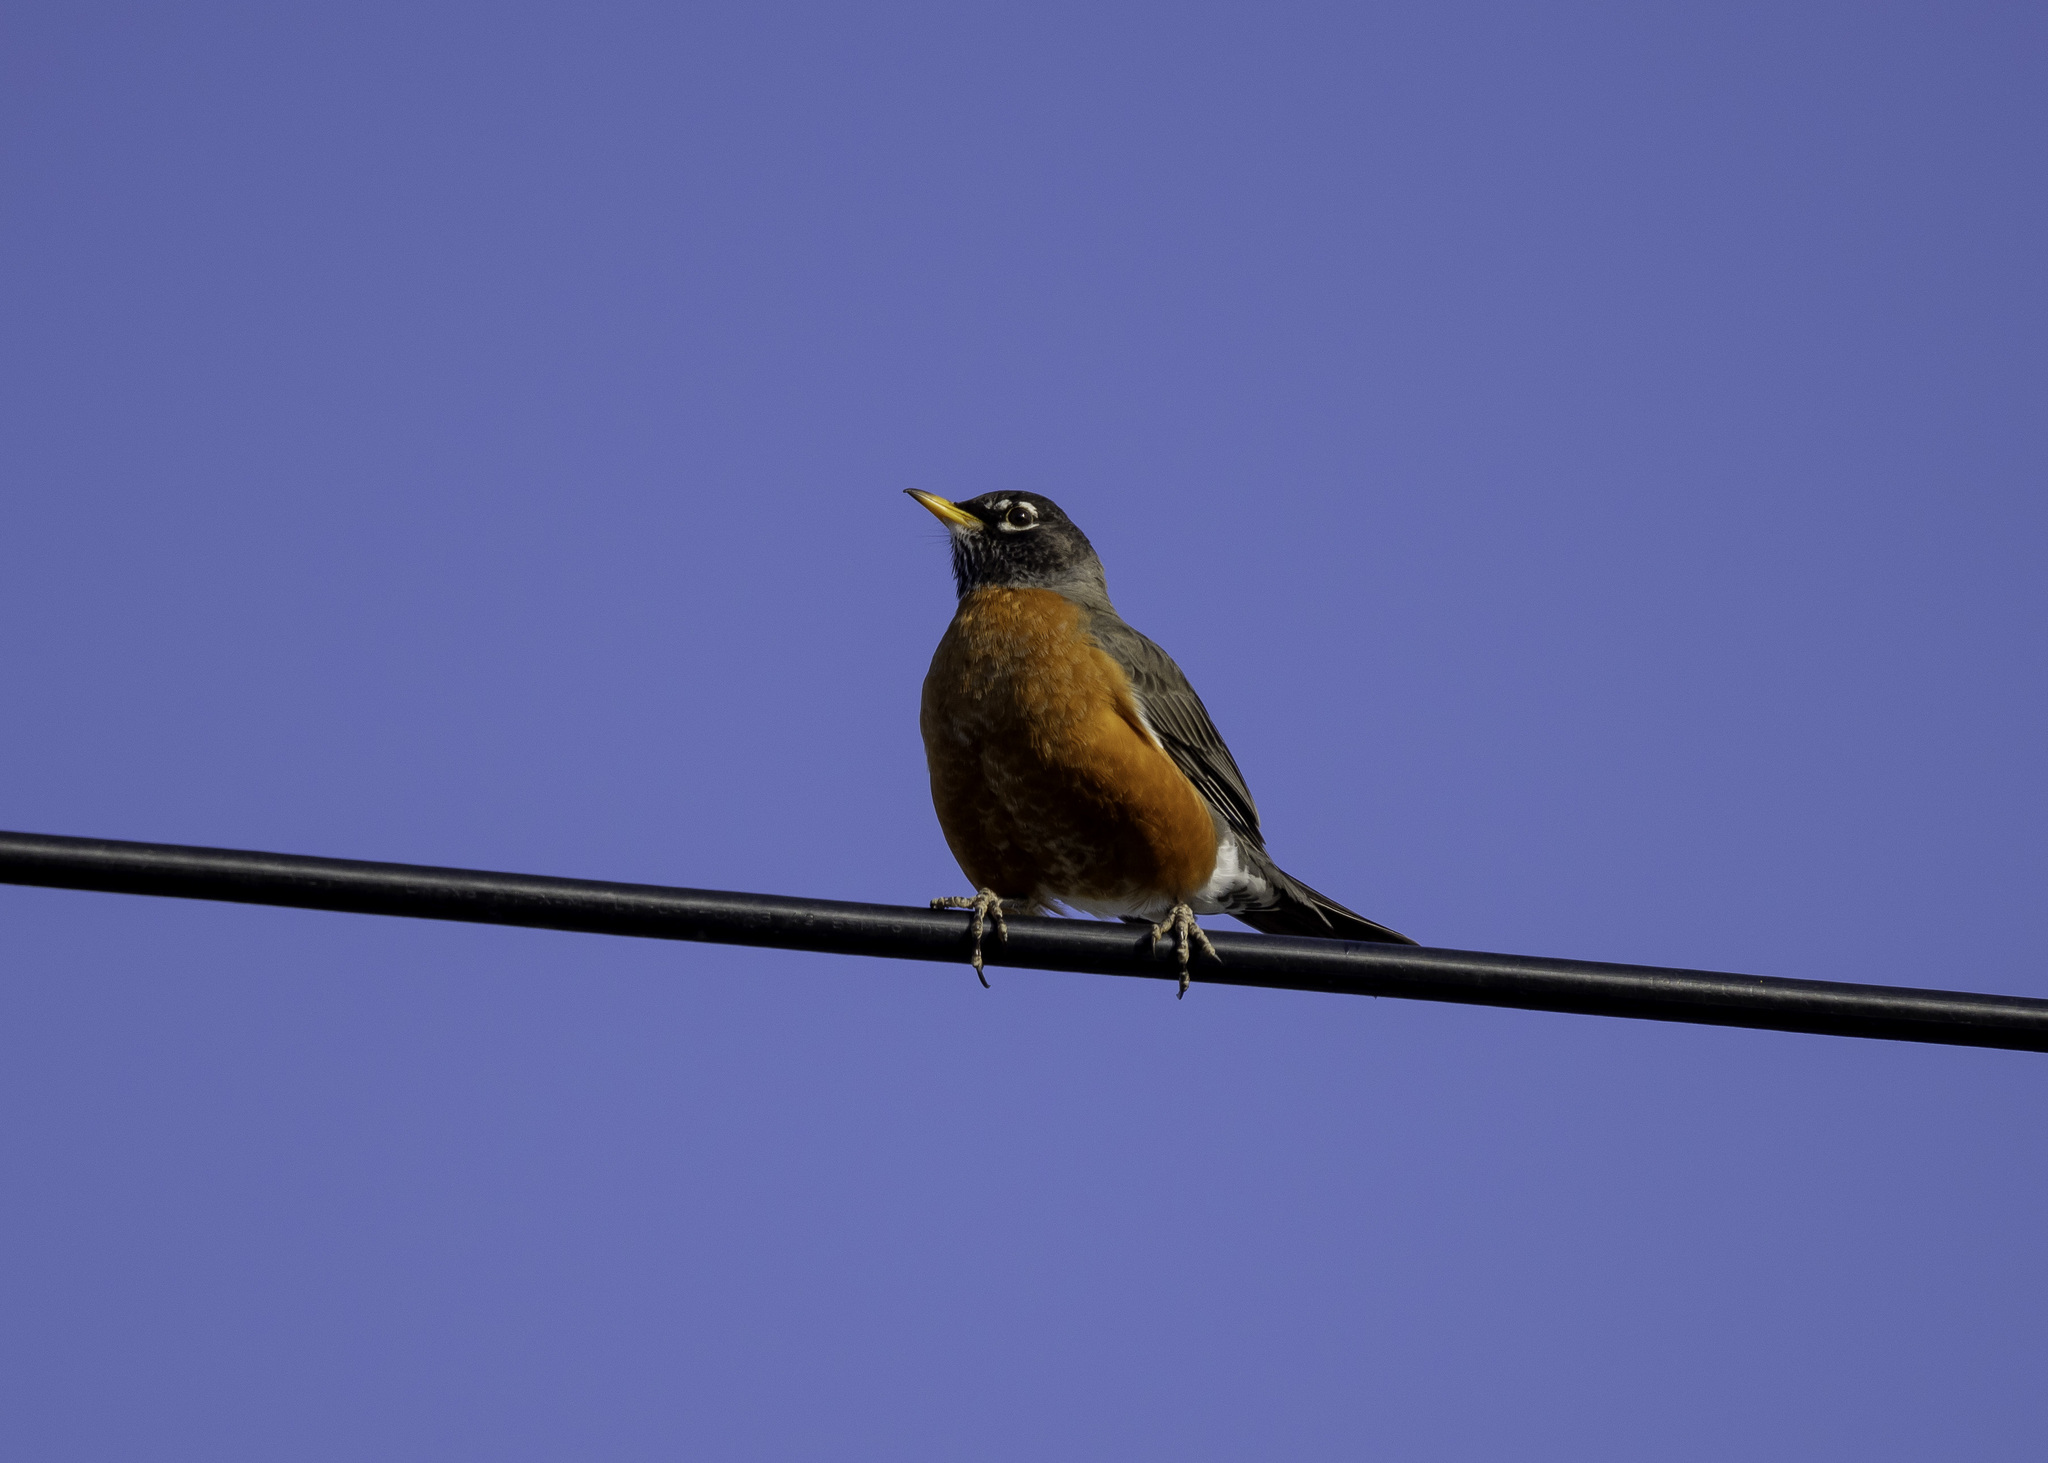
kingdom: Animalia
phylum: Chordata
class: Aves
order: Passeriformes
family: Turdidae
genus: Turdus
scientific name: Turdus migratorius
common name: American robin
